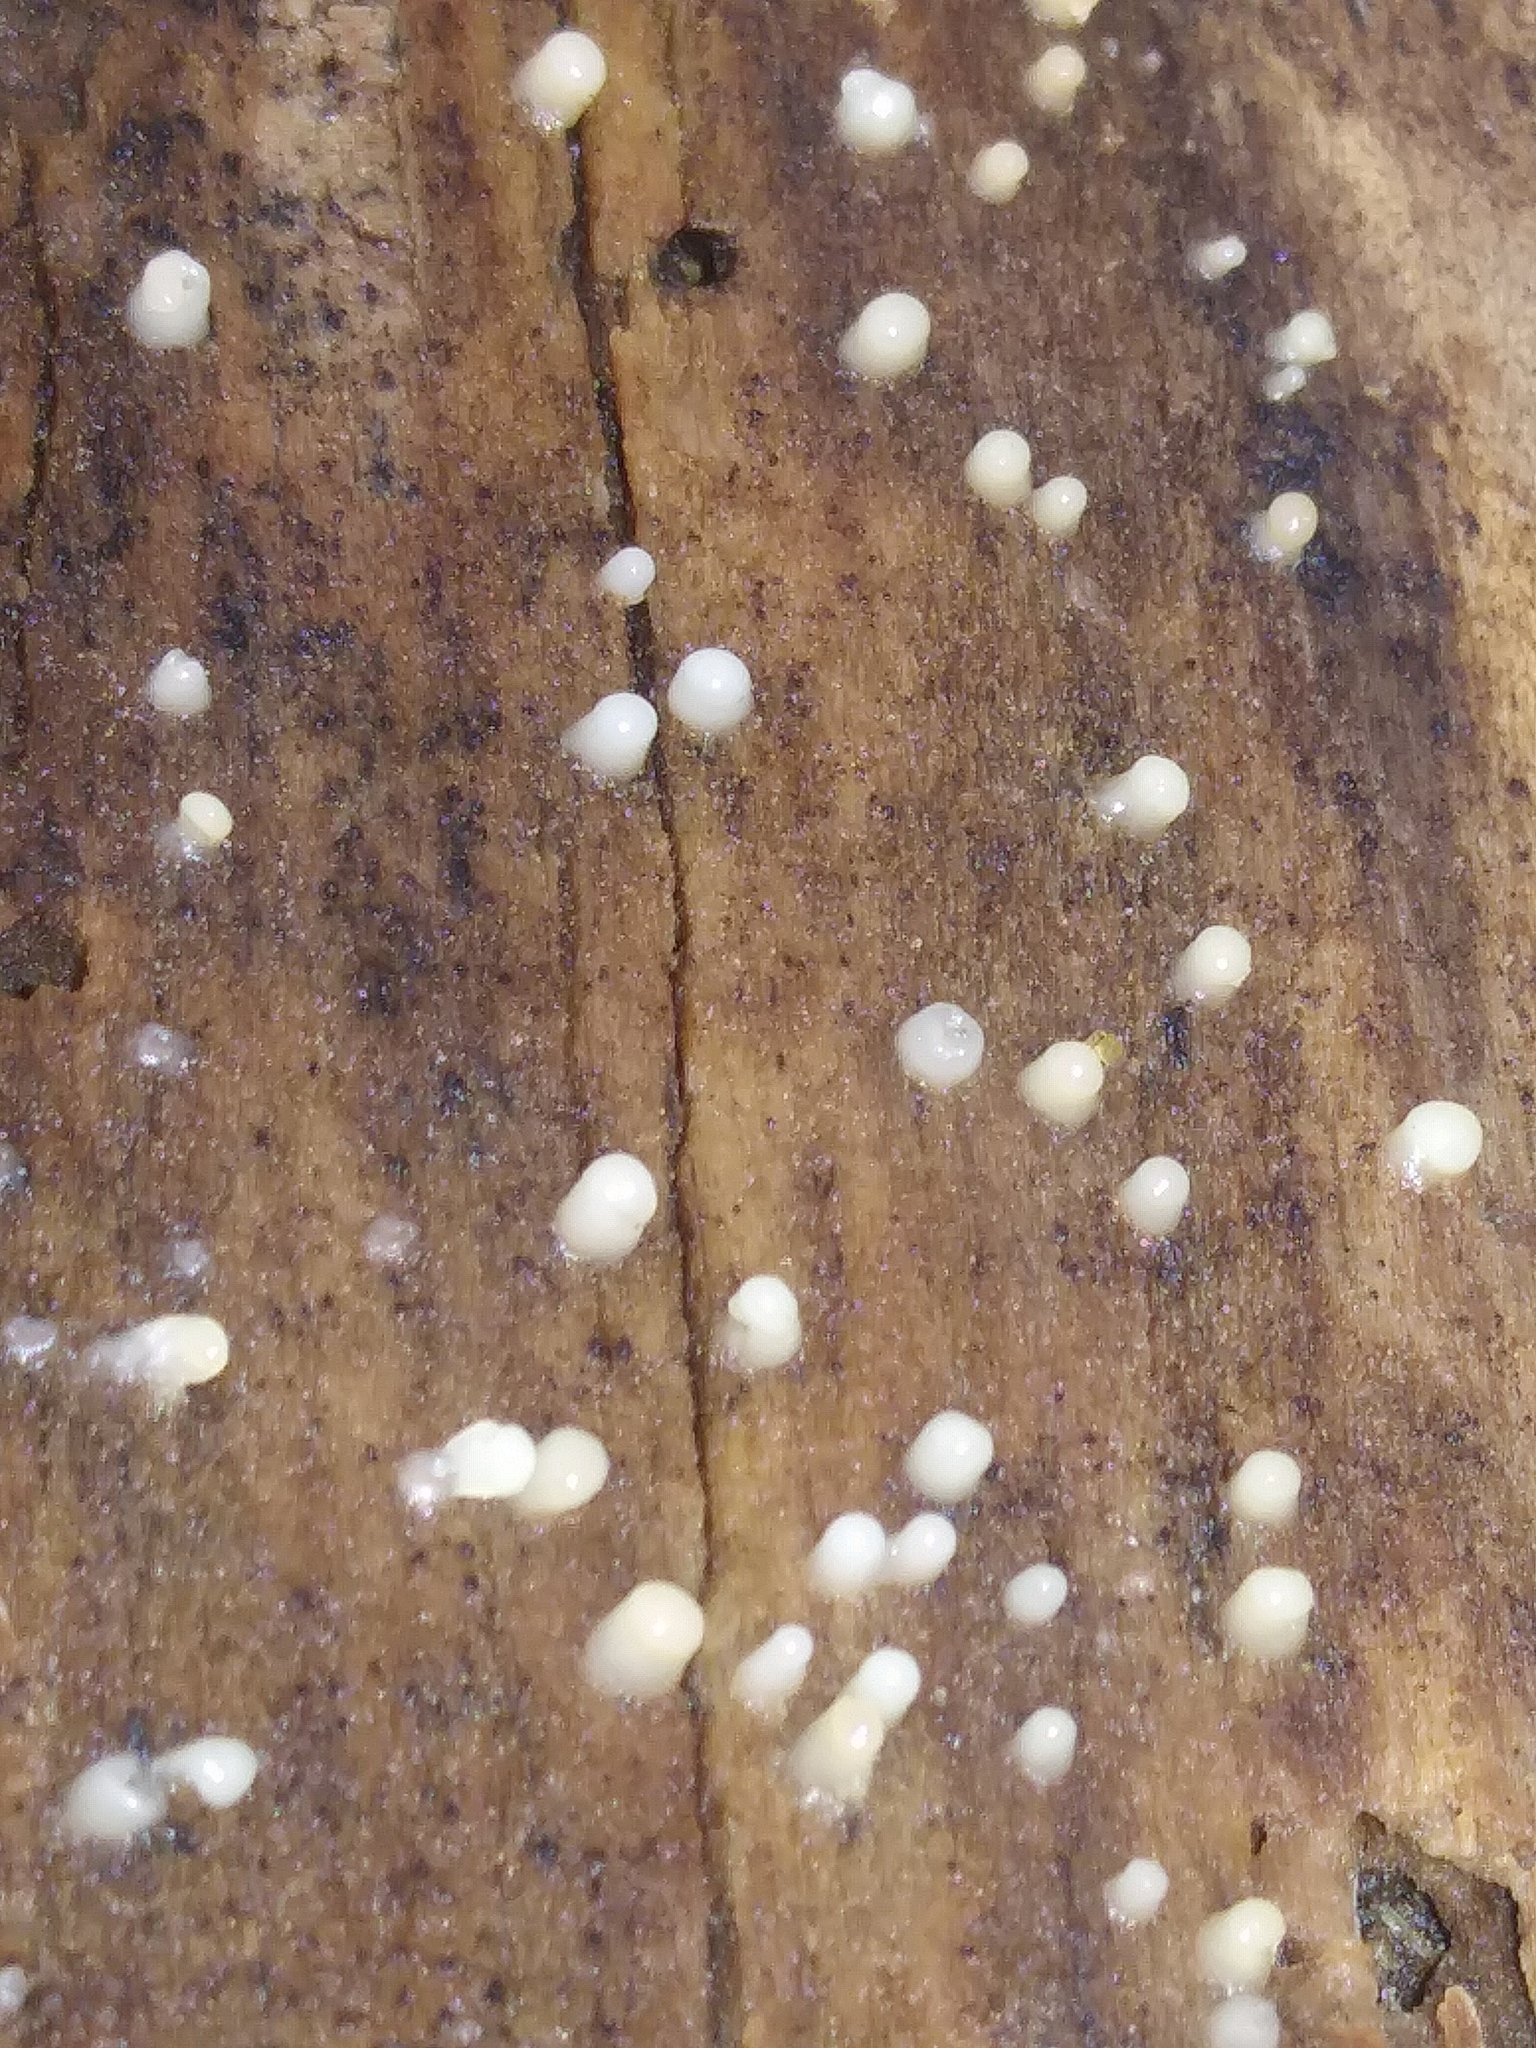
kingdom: Fungi
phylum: Basidiomycota
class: Atractiellomycetes
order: Atractiellales
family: Phleogenaceae
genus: Helicogloea
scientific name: Helicogloea compressa
